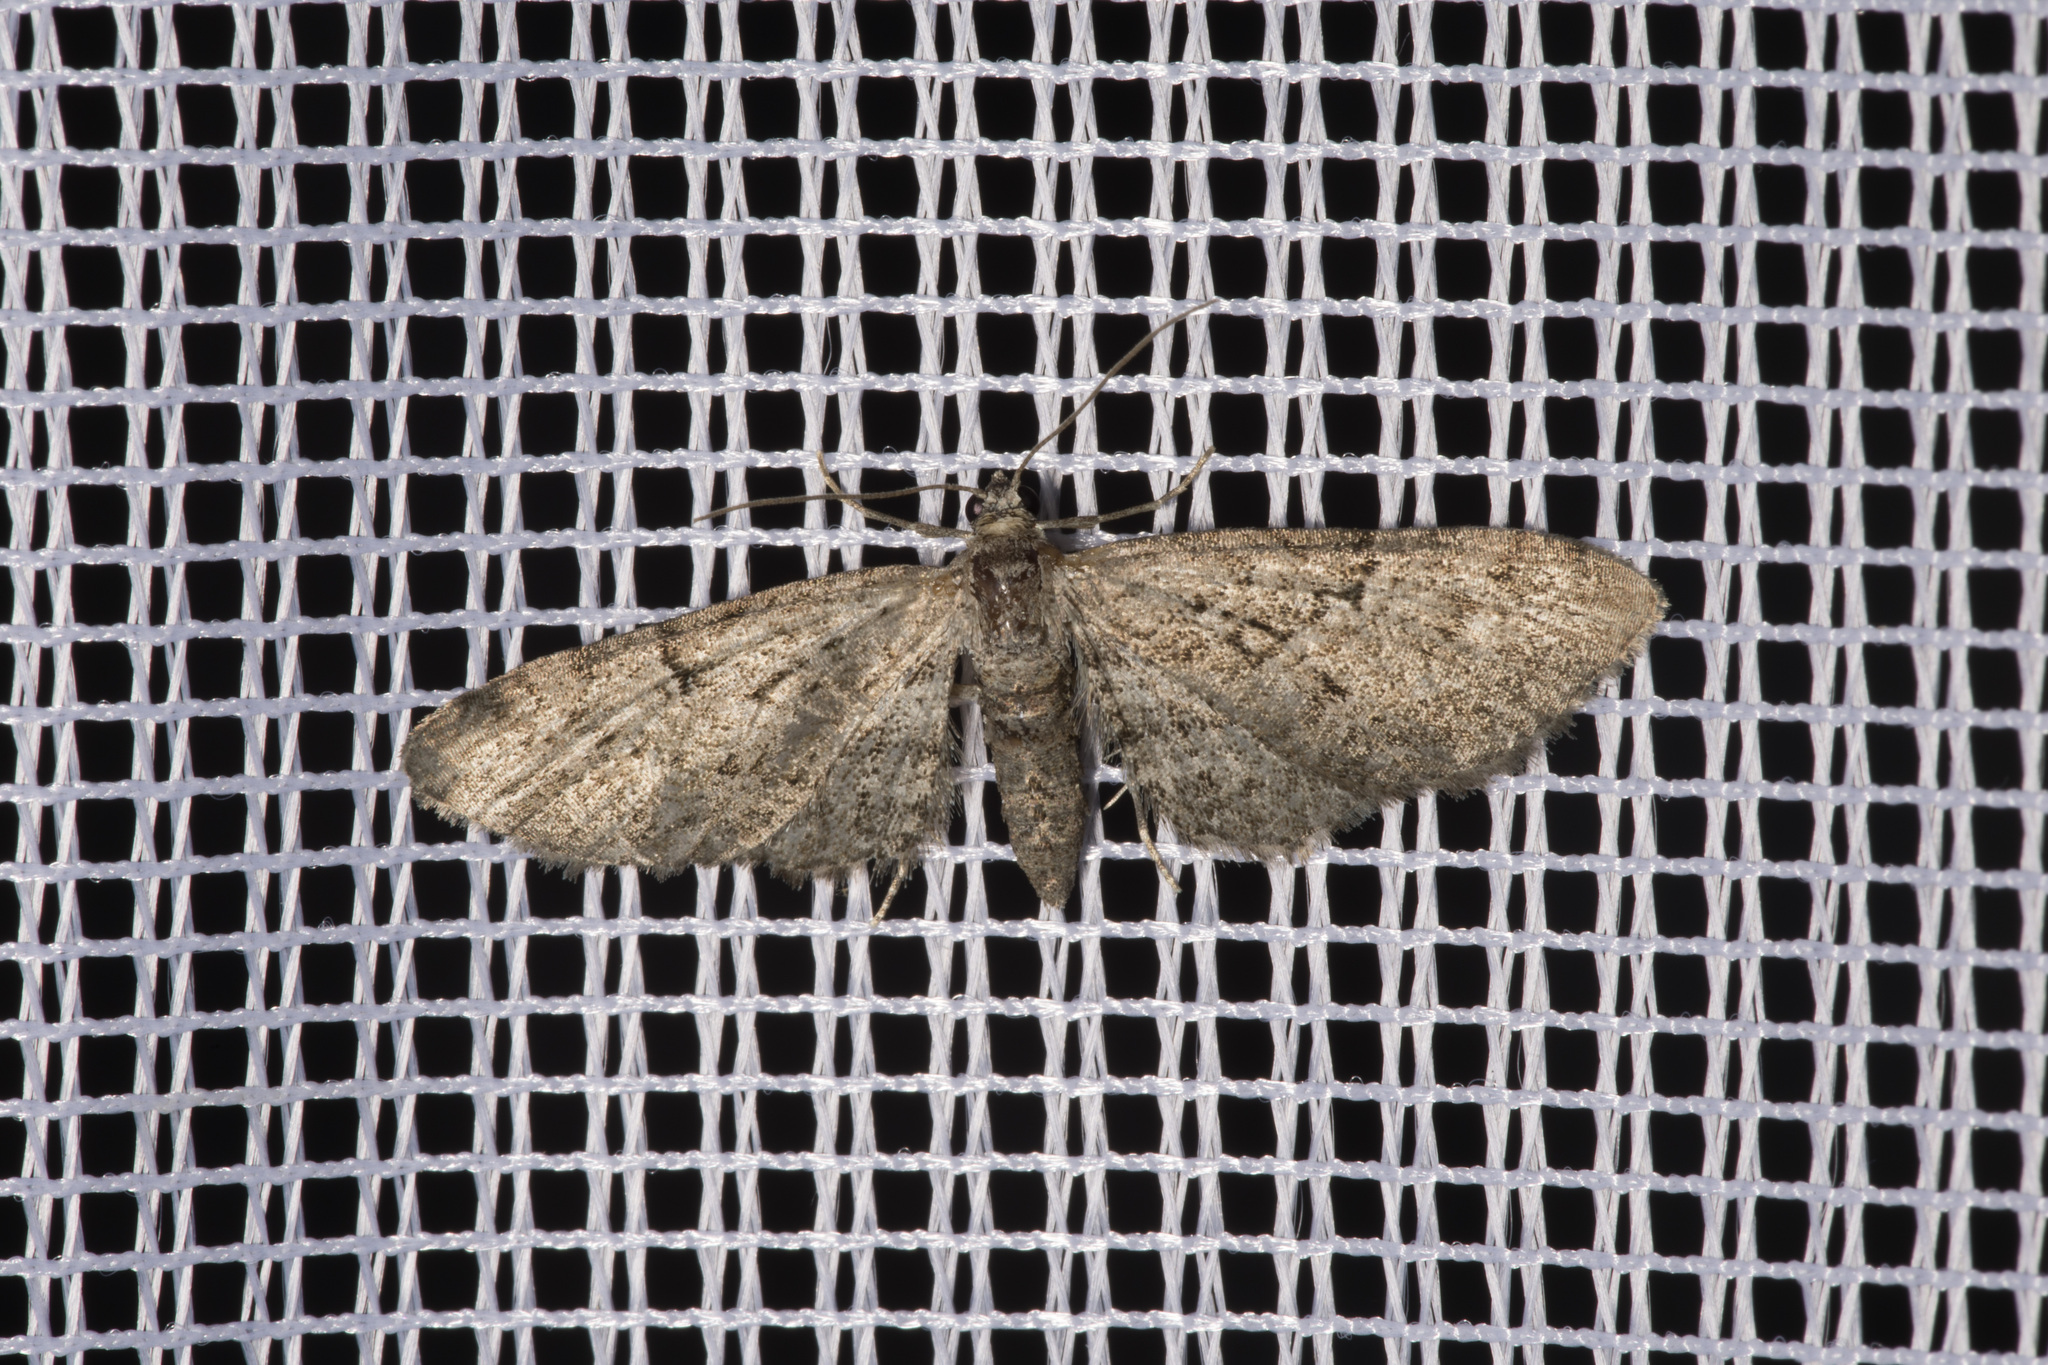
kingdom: Animalia
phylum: Arthropoda
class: Insecta
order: Lepidoptera
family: Geometridae
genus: Eupithecia
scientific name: Eupithecia pusillata
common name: Juniper pug
